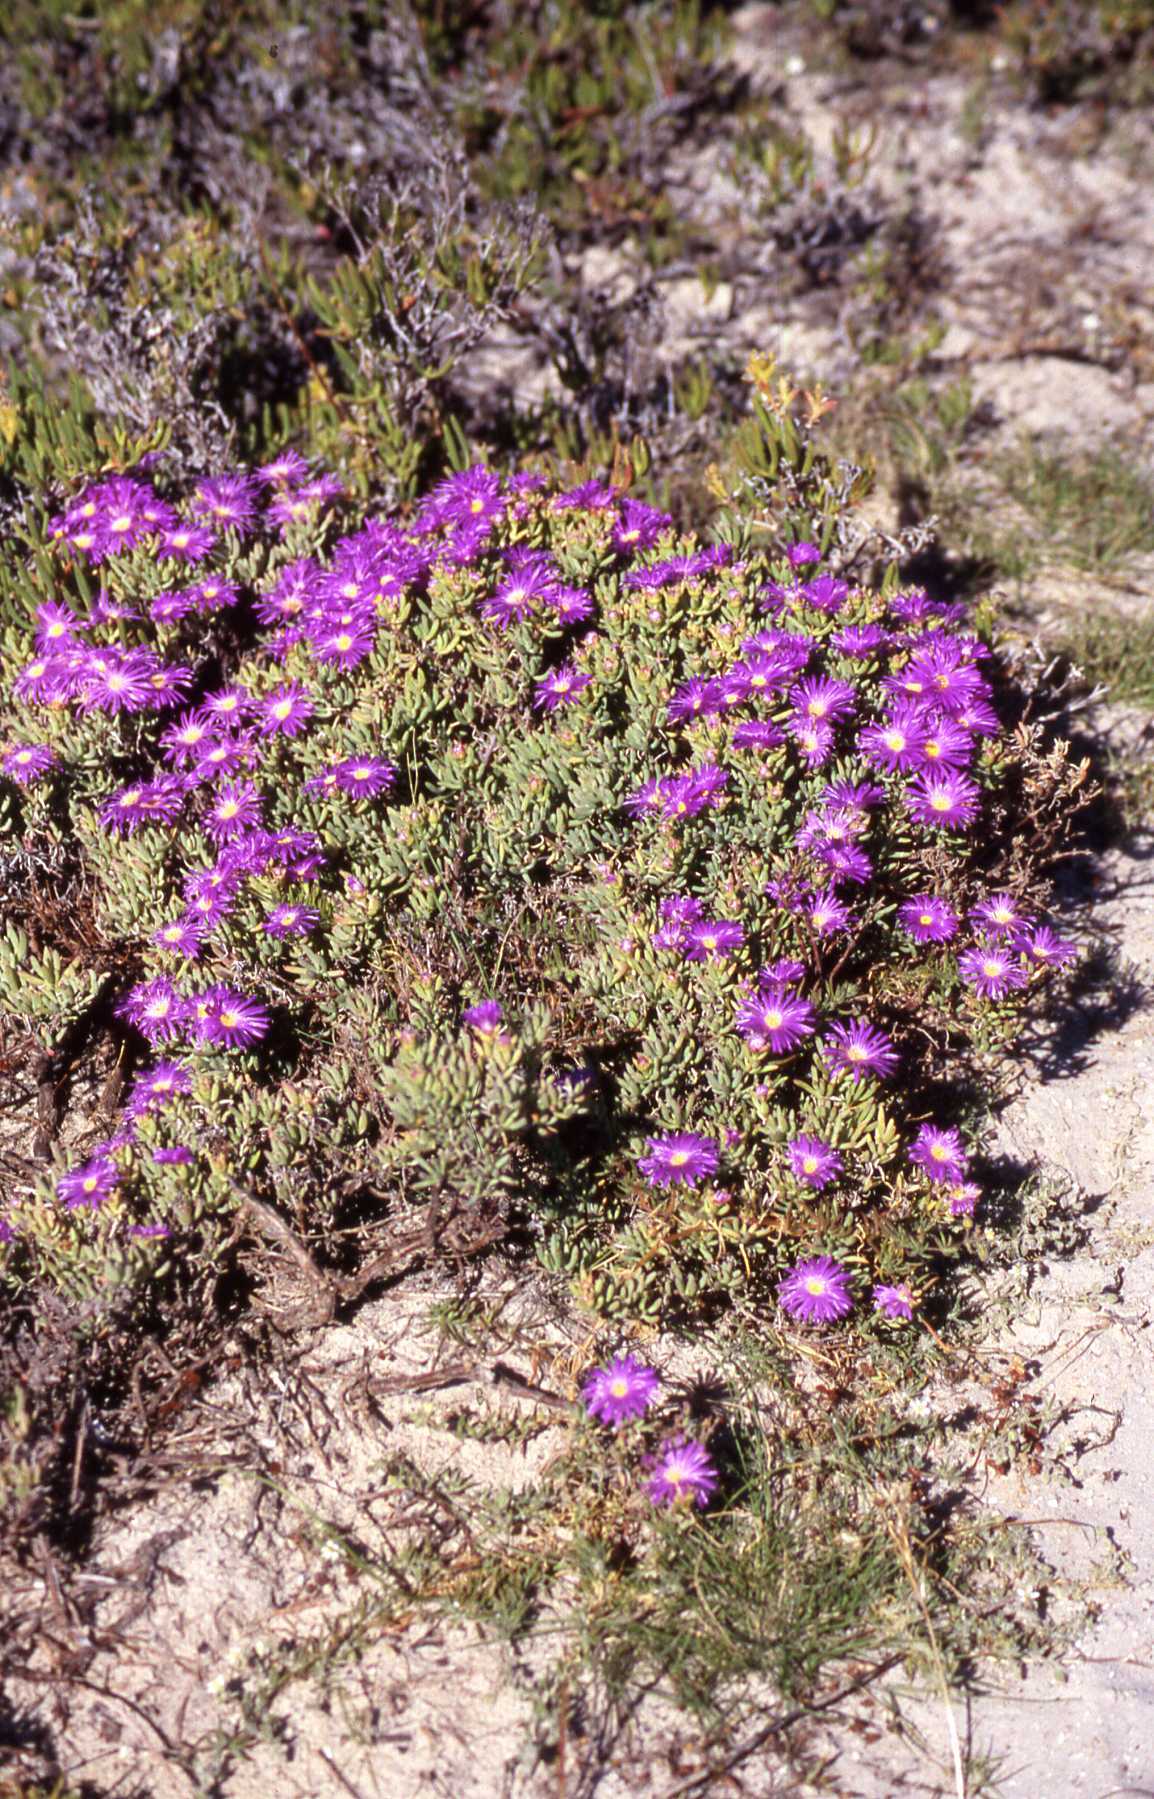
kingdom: Plantae
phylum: Tracheophyta
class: Magnoliopsida
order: Caryophyllales
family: Aizoaceae
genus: Lampranthus
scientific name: Lampranthus stipulaceus
